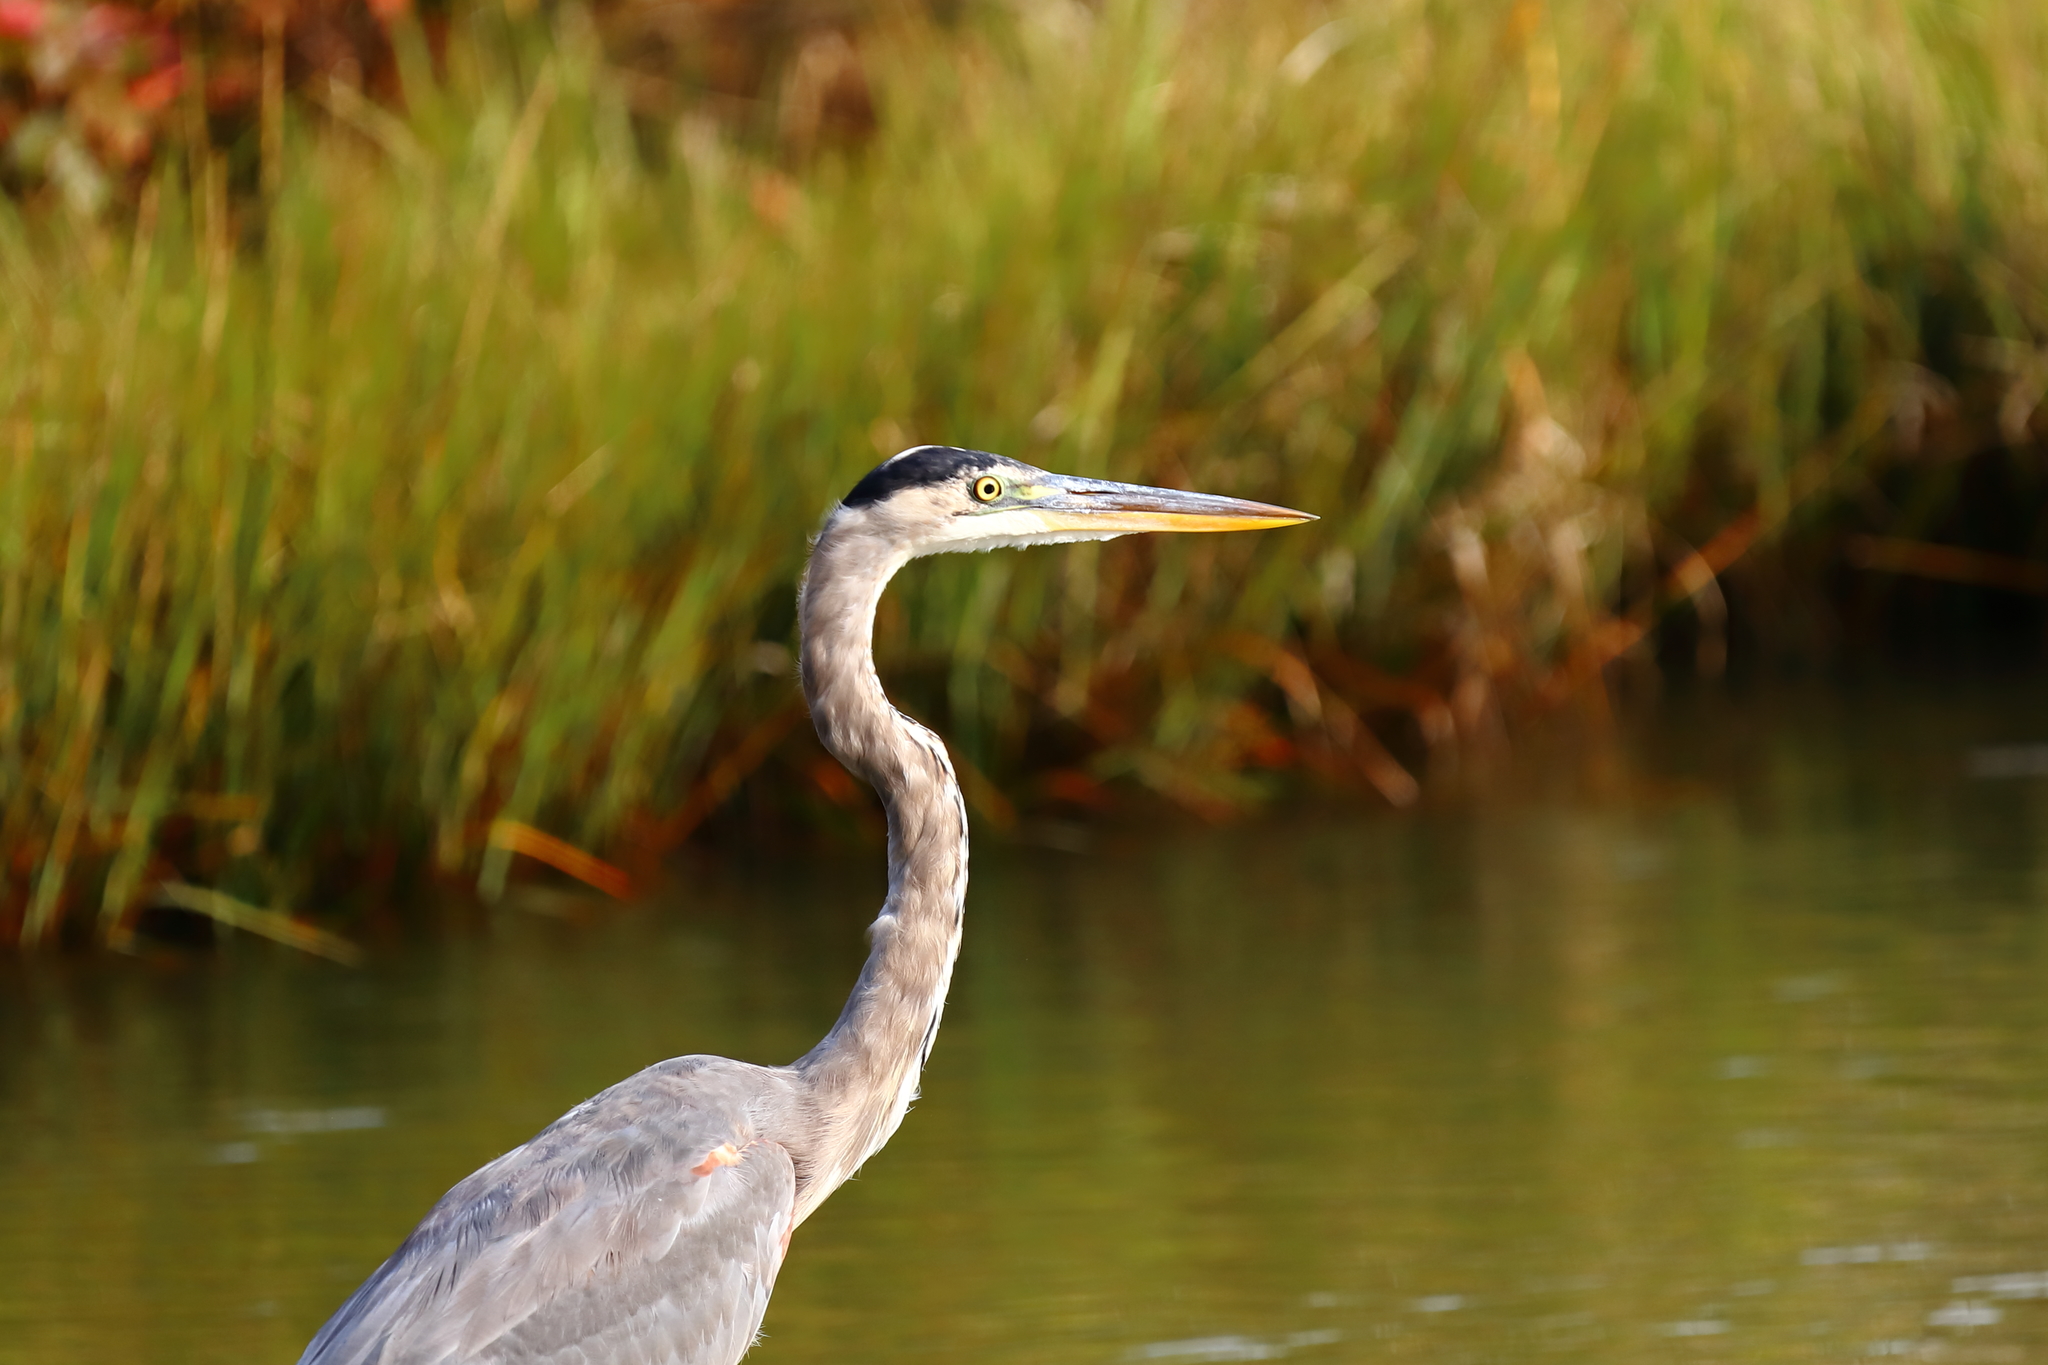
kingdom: Animalia
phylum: Chordata
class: Aves
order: Pelecaniformes
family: Ardeidae
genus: Ardea
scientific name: Ardea herodias
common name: Great blue heron
